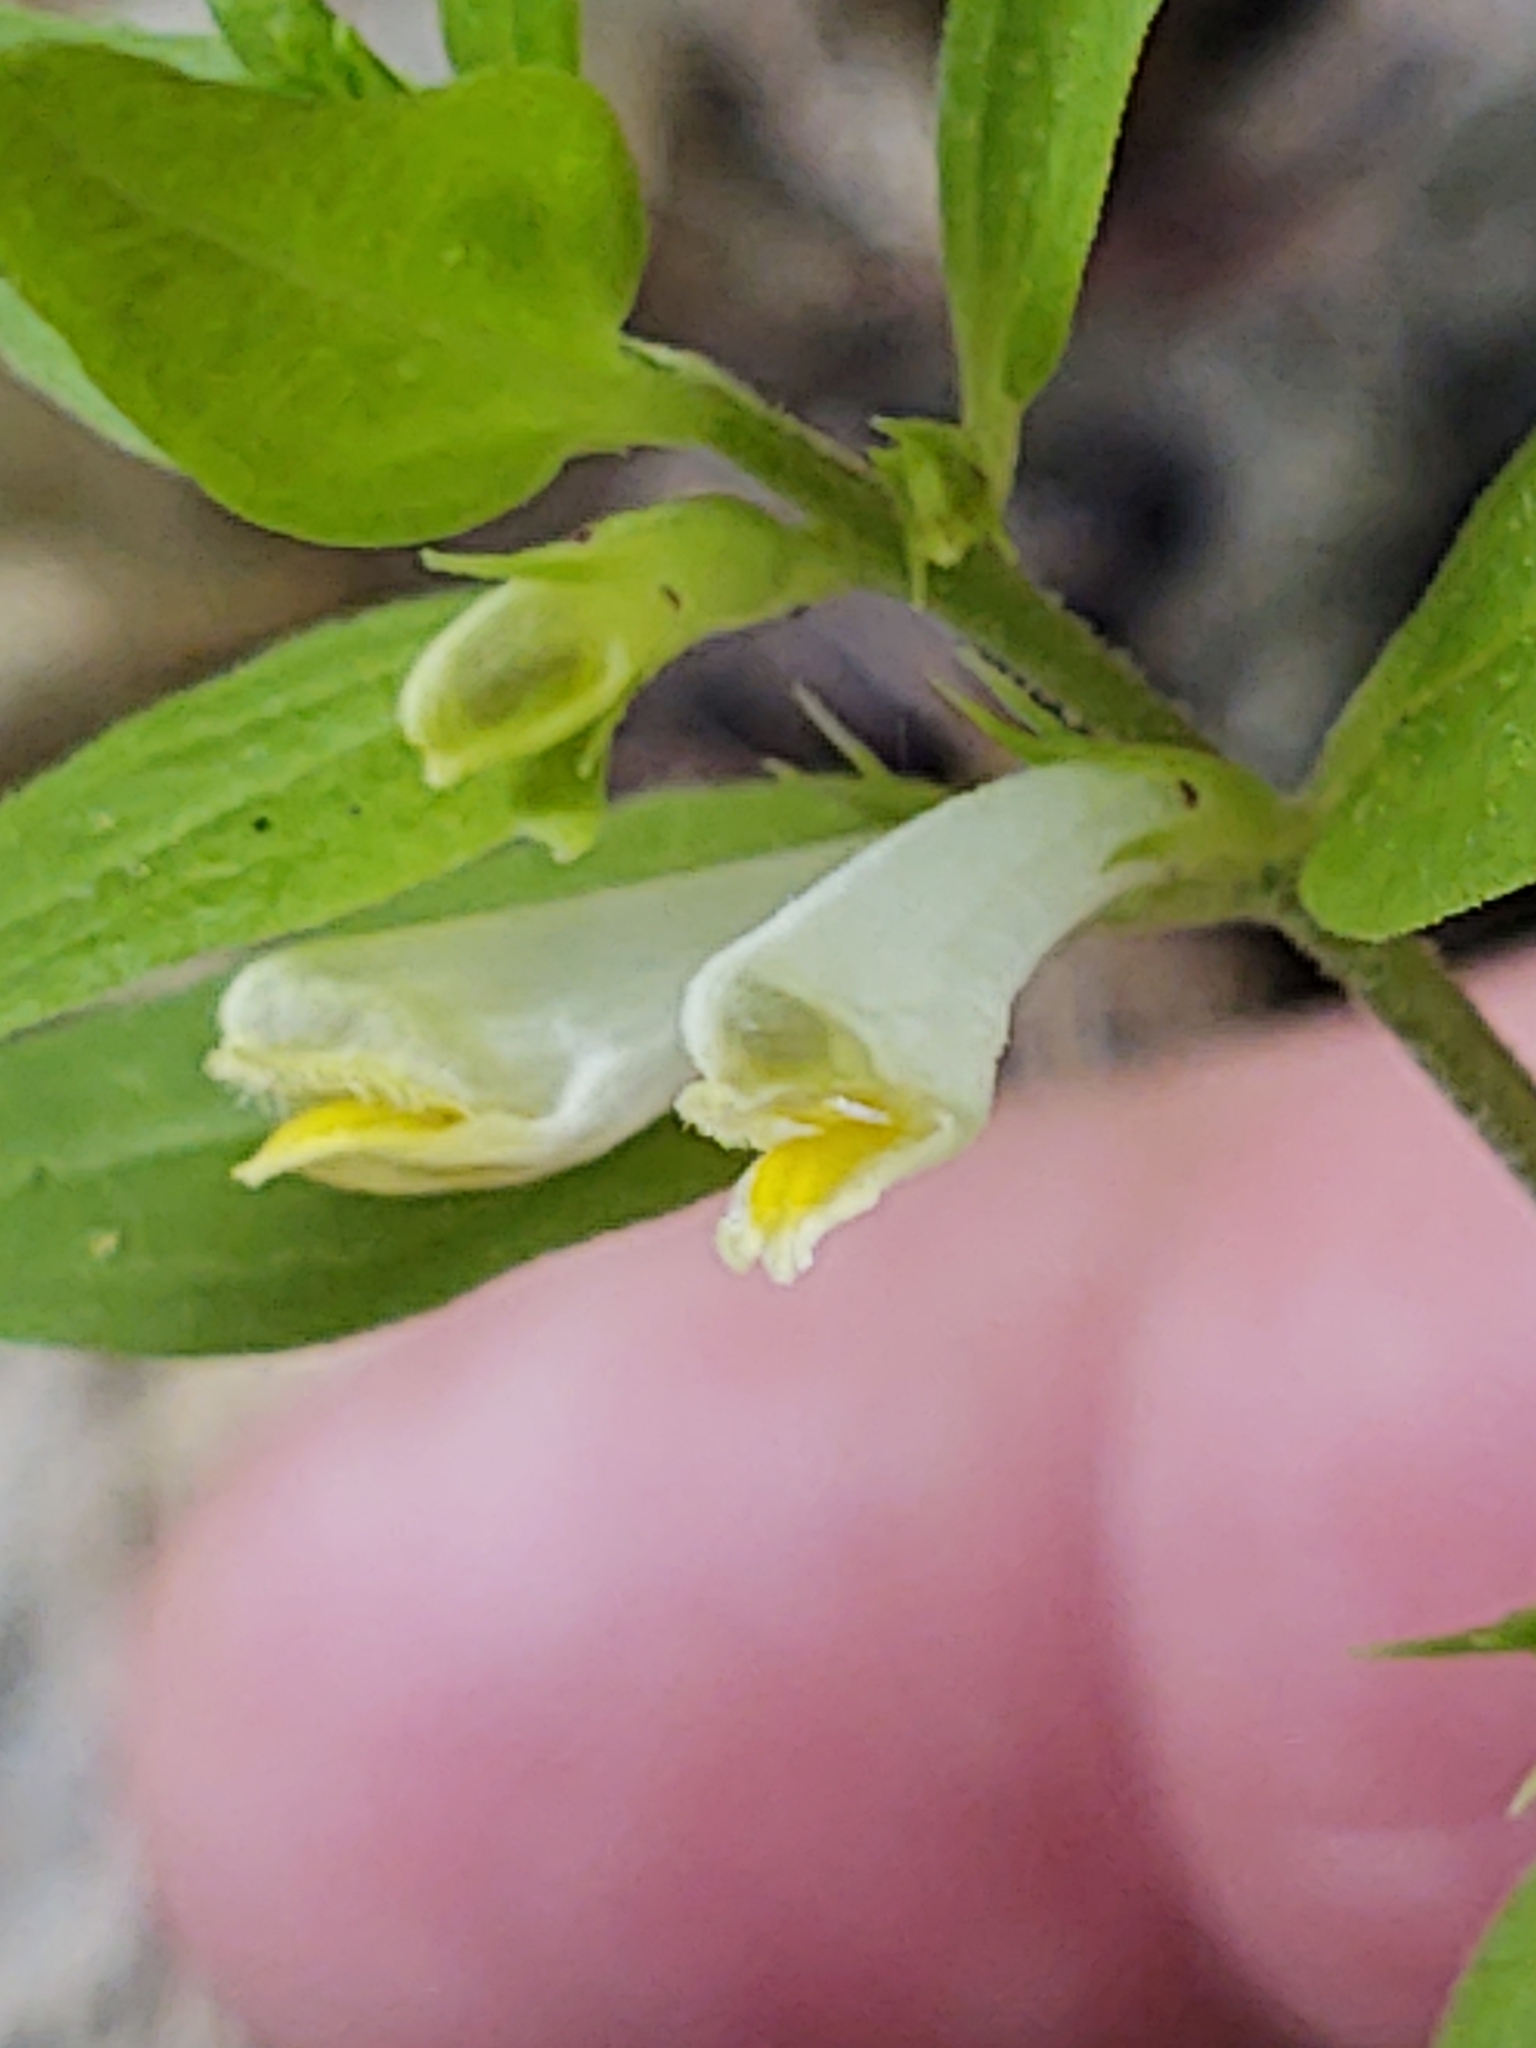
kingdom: Plantae
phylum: Tracheophyta
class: Magnoliopsida
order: Lamiales
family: Orobanchaceae
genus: Melampyrum
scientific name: Melampyrum lineare
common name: American cow-wheat
